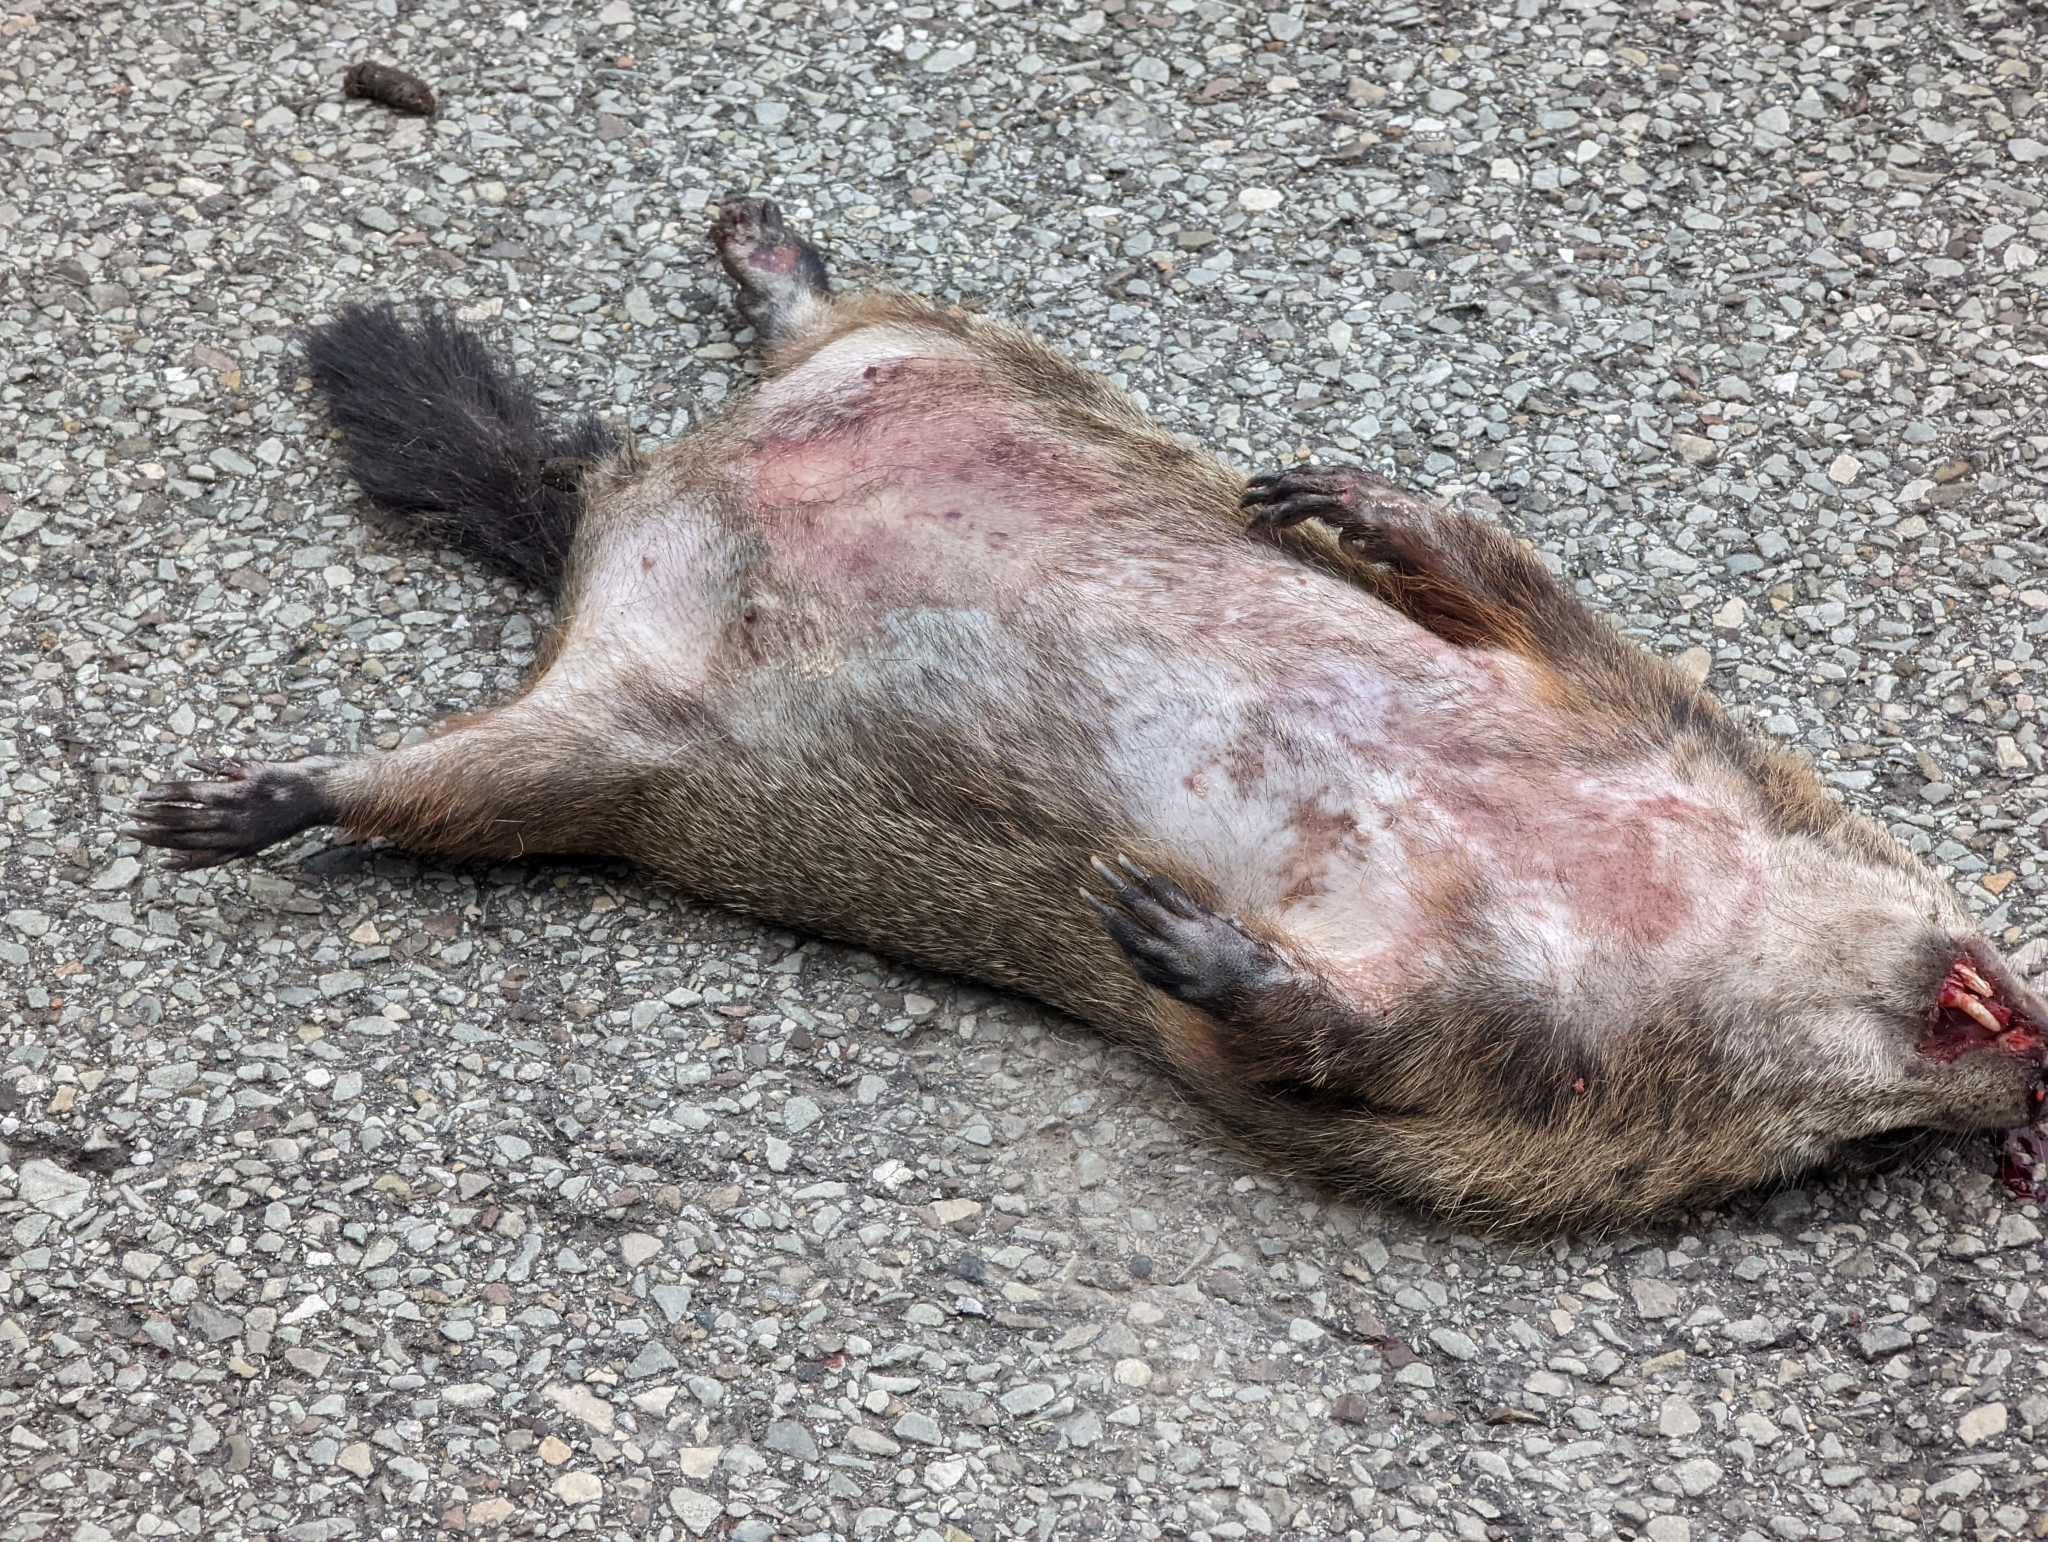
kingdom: Animalia
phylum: Chordata
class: Mammalia
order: Rodentia
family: Sciuridae
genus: Marmota
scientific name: Marmota monax
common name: Groundhog
